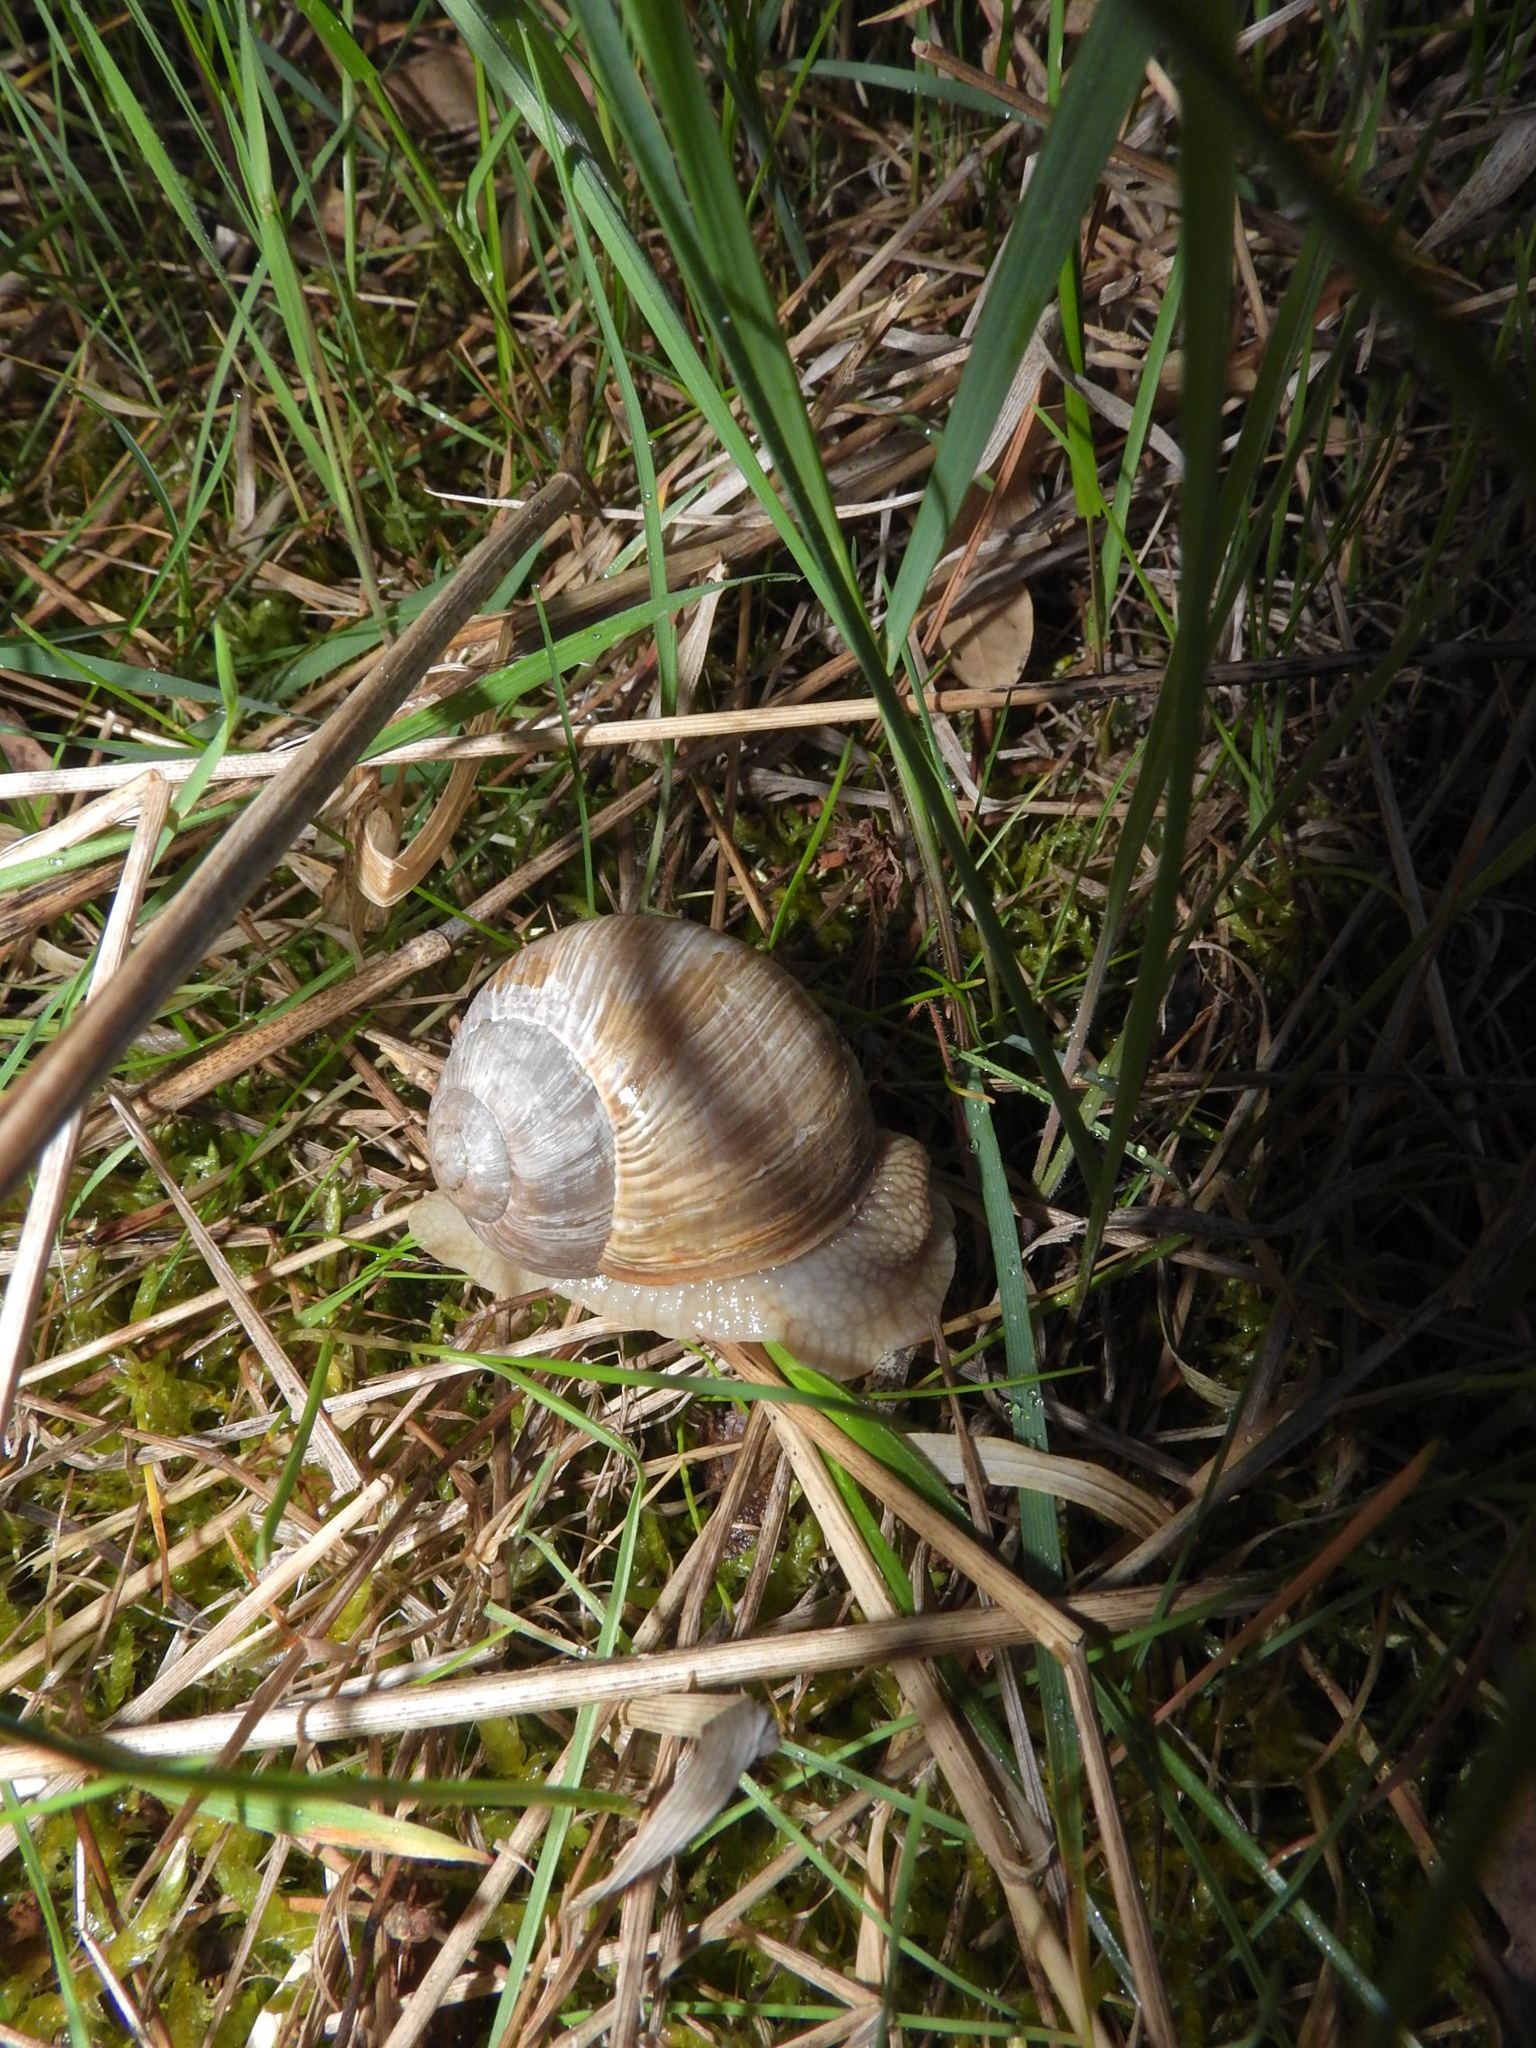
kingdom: Animalia
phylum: Mollusca
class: Gastropoda
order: Stylommatophora
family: Helicidae
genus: Helix
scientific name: Helix pomatia
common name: Roman snail
